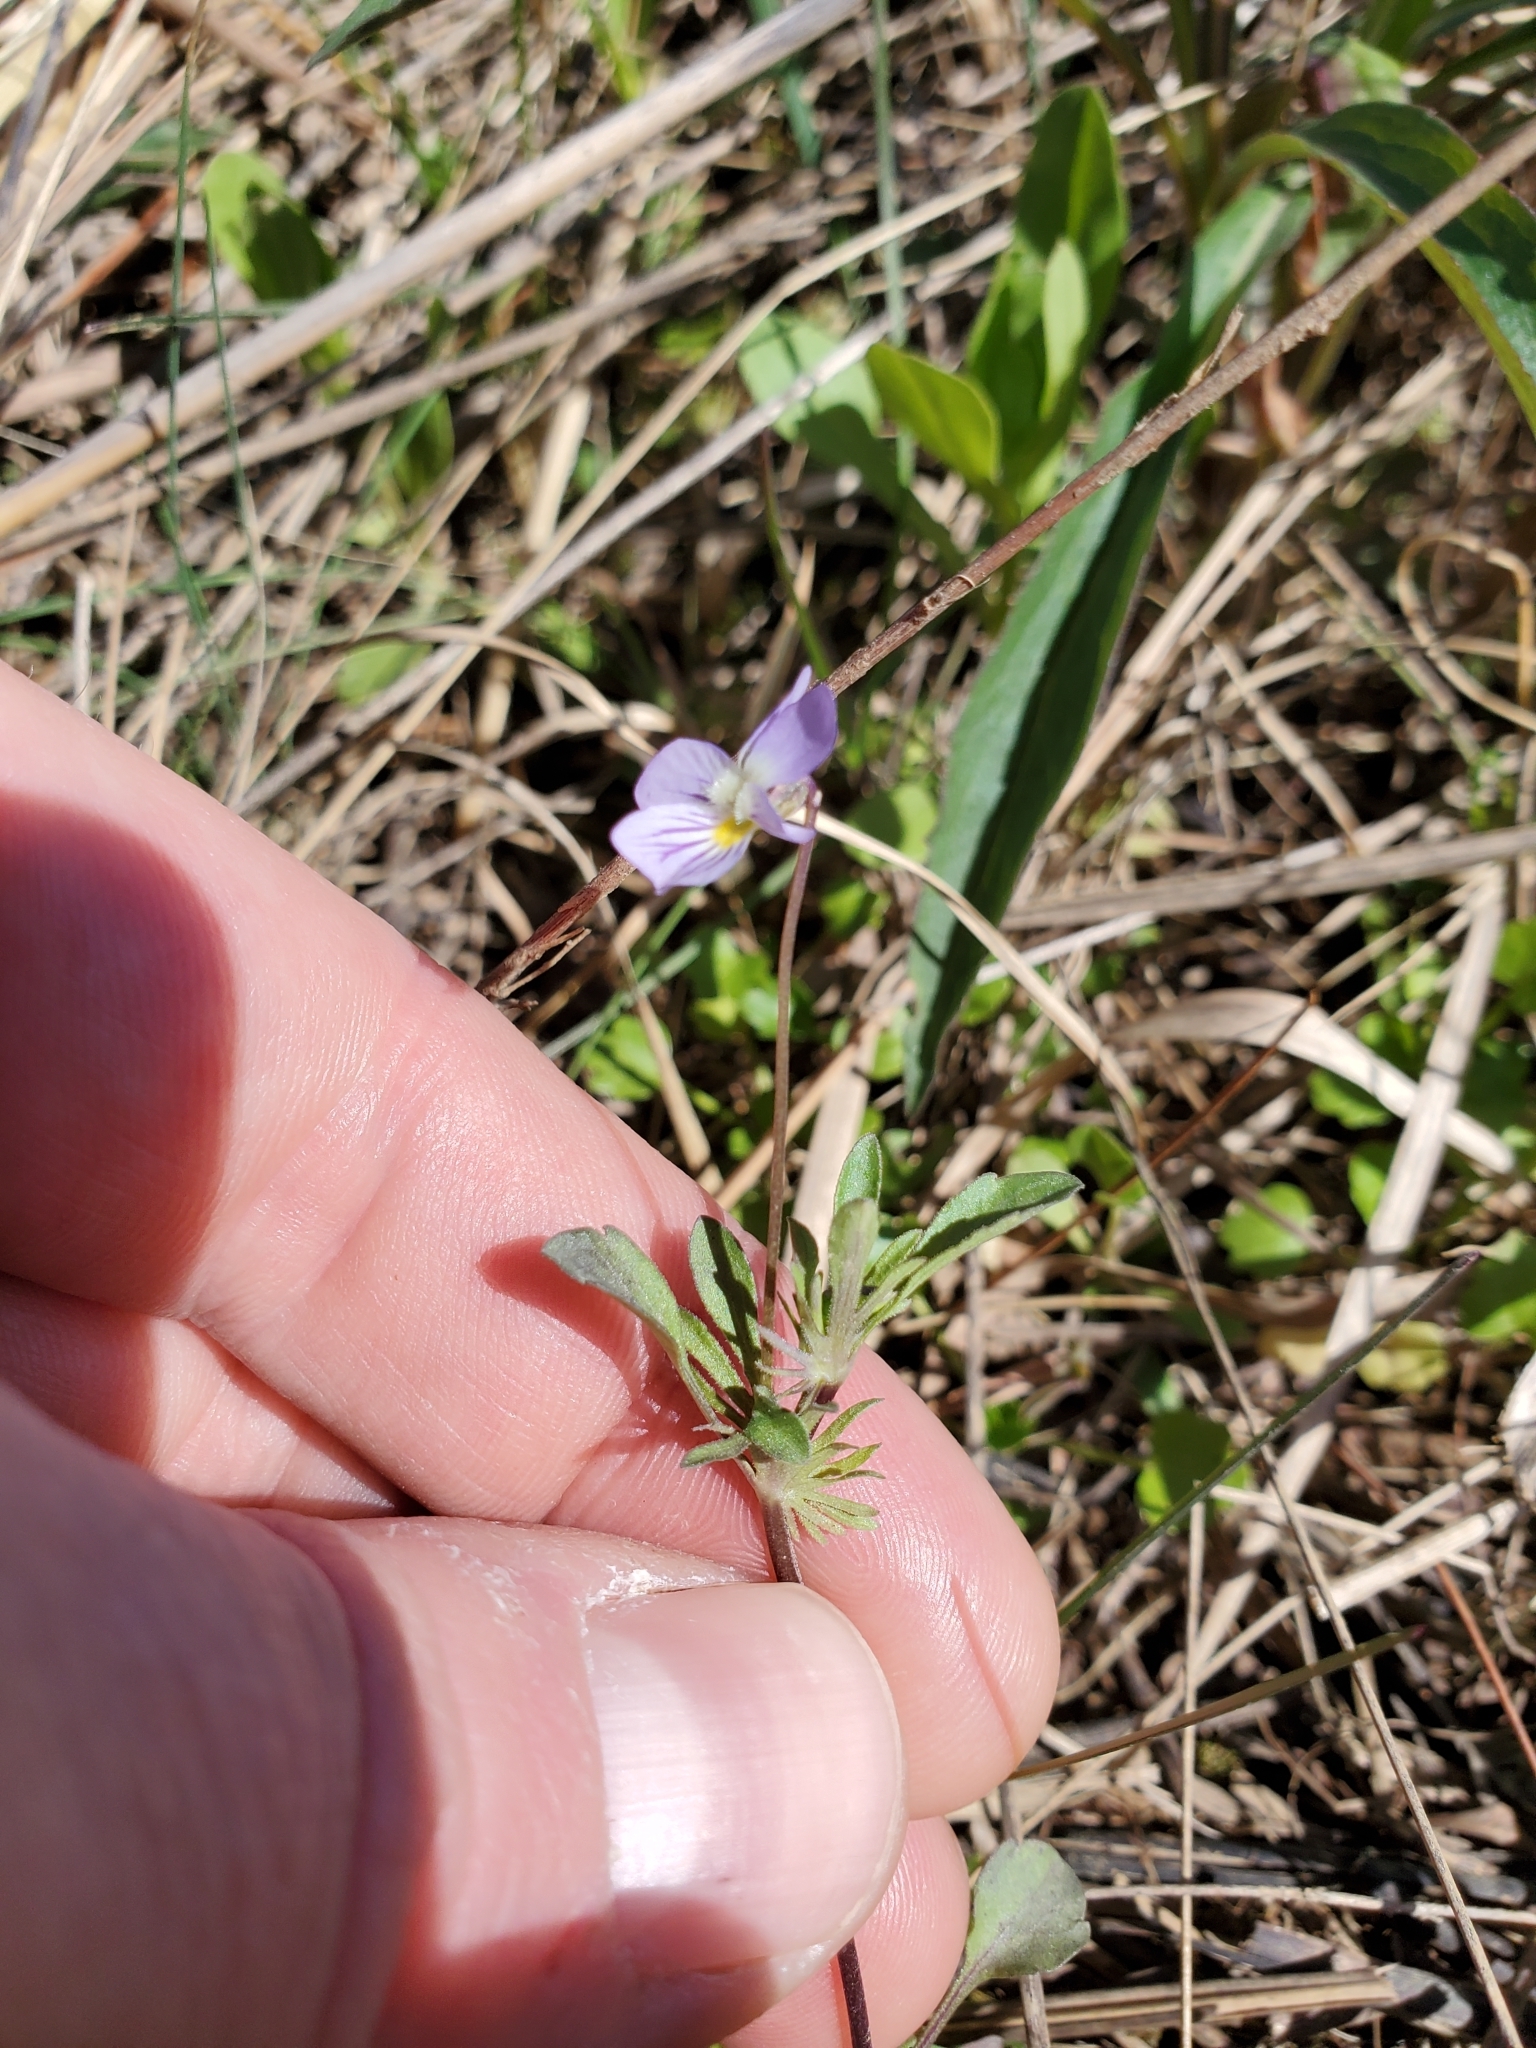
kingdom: Plantae
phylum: Tracheophyta
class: Magnoliopsida
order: Malpighiales
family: Violaceae
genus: Viola
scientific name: Viola rafinesquei
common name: American field pansy
